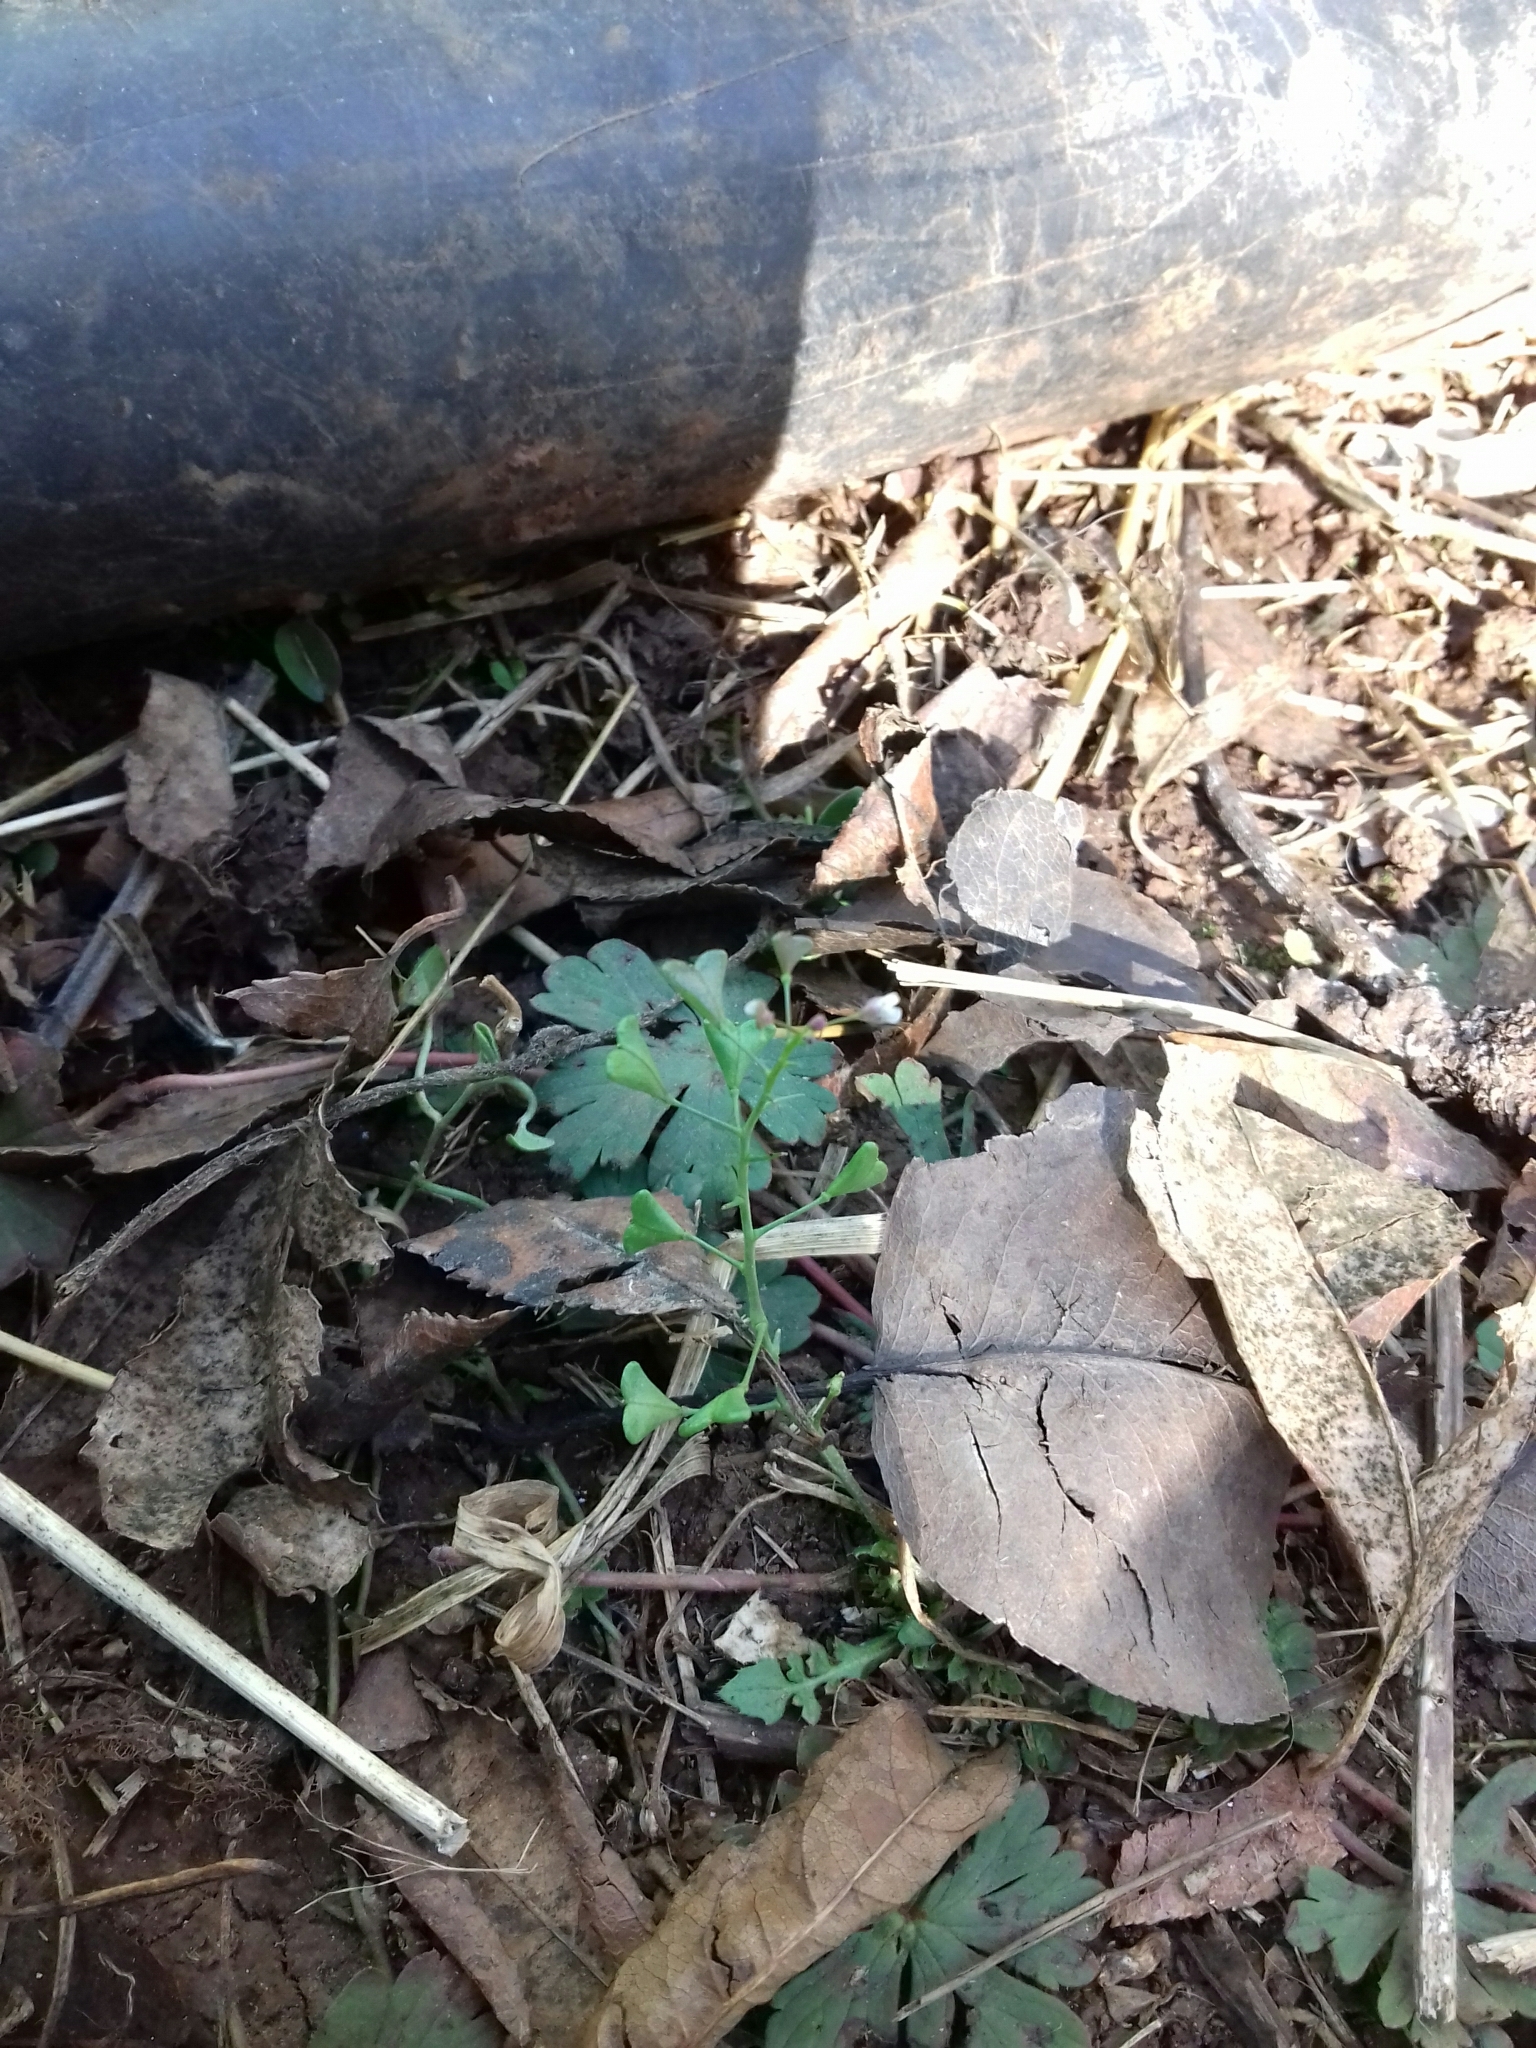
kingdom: Plantae
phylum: Tracheophyta
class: Magnoliopsida
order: Brassicales
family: Brassicaceae
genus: Capsella
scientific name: Capsella bursa-pastoris
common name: Shepherd's purse
